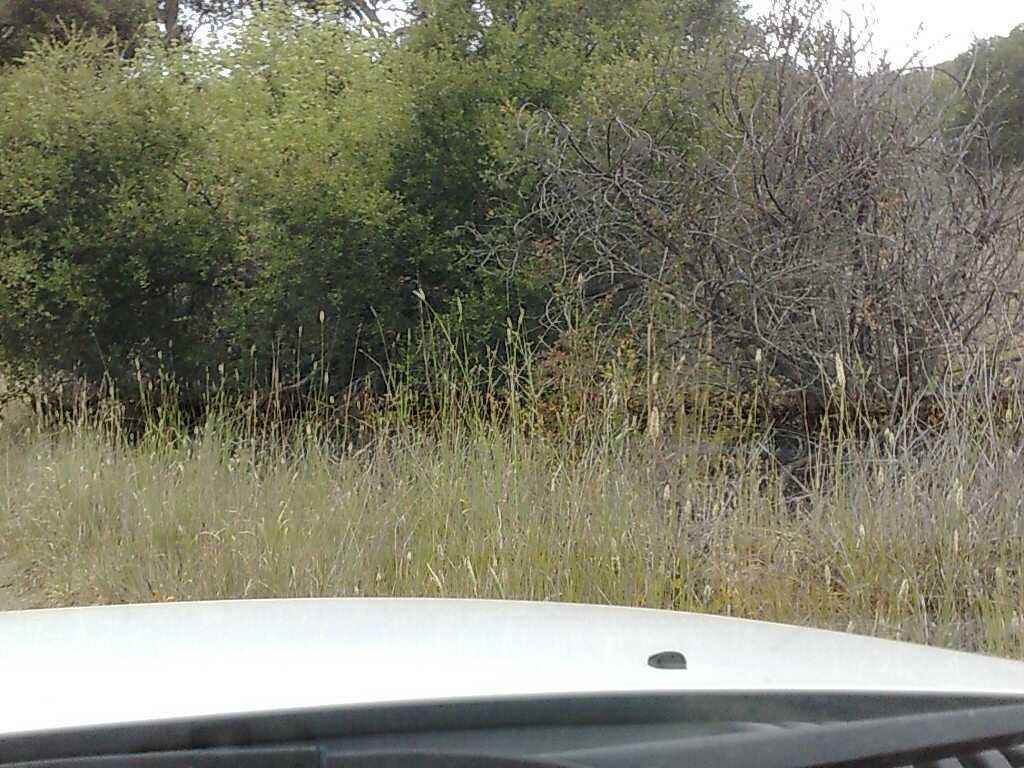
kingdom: Plantae
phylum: Tracheophyta
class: Liliopsida
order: Poales
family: Poaceae
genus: Phalaris
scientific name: Phalaris aquatica
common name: Bulbous canary-grass
